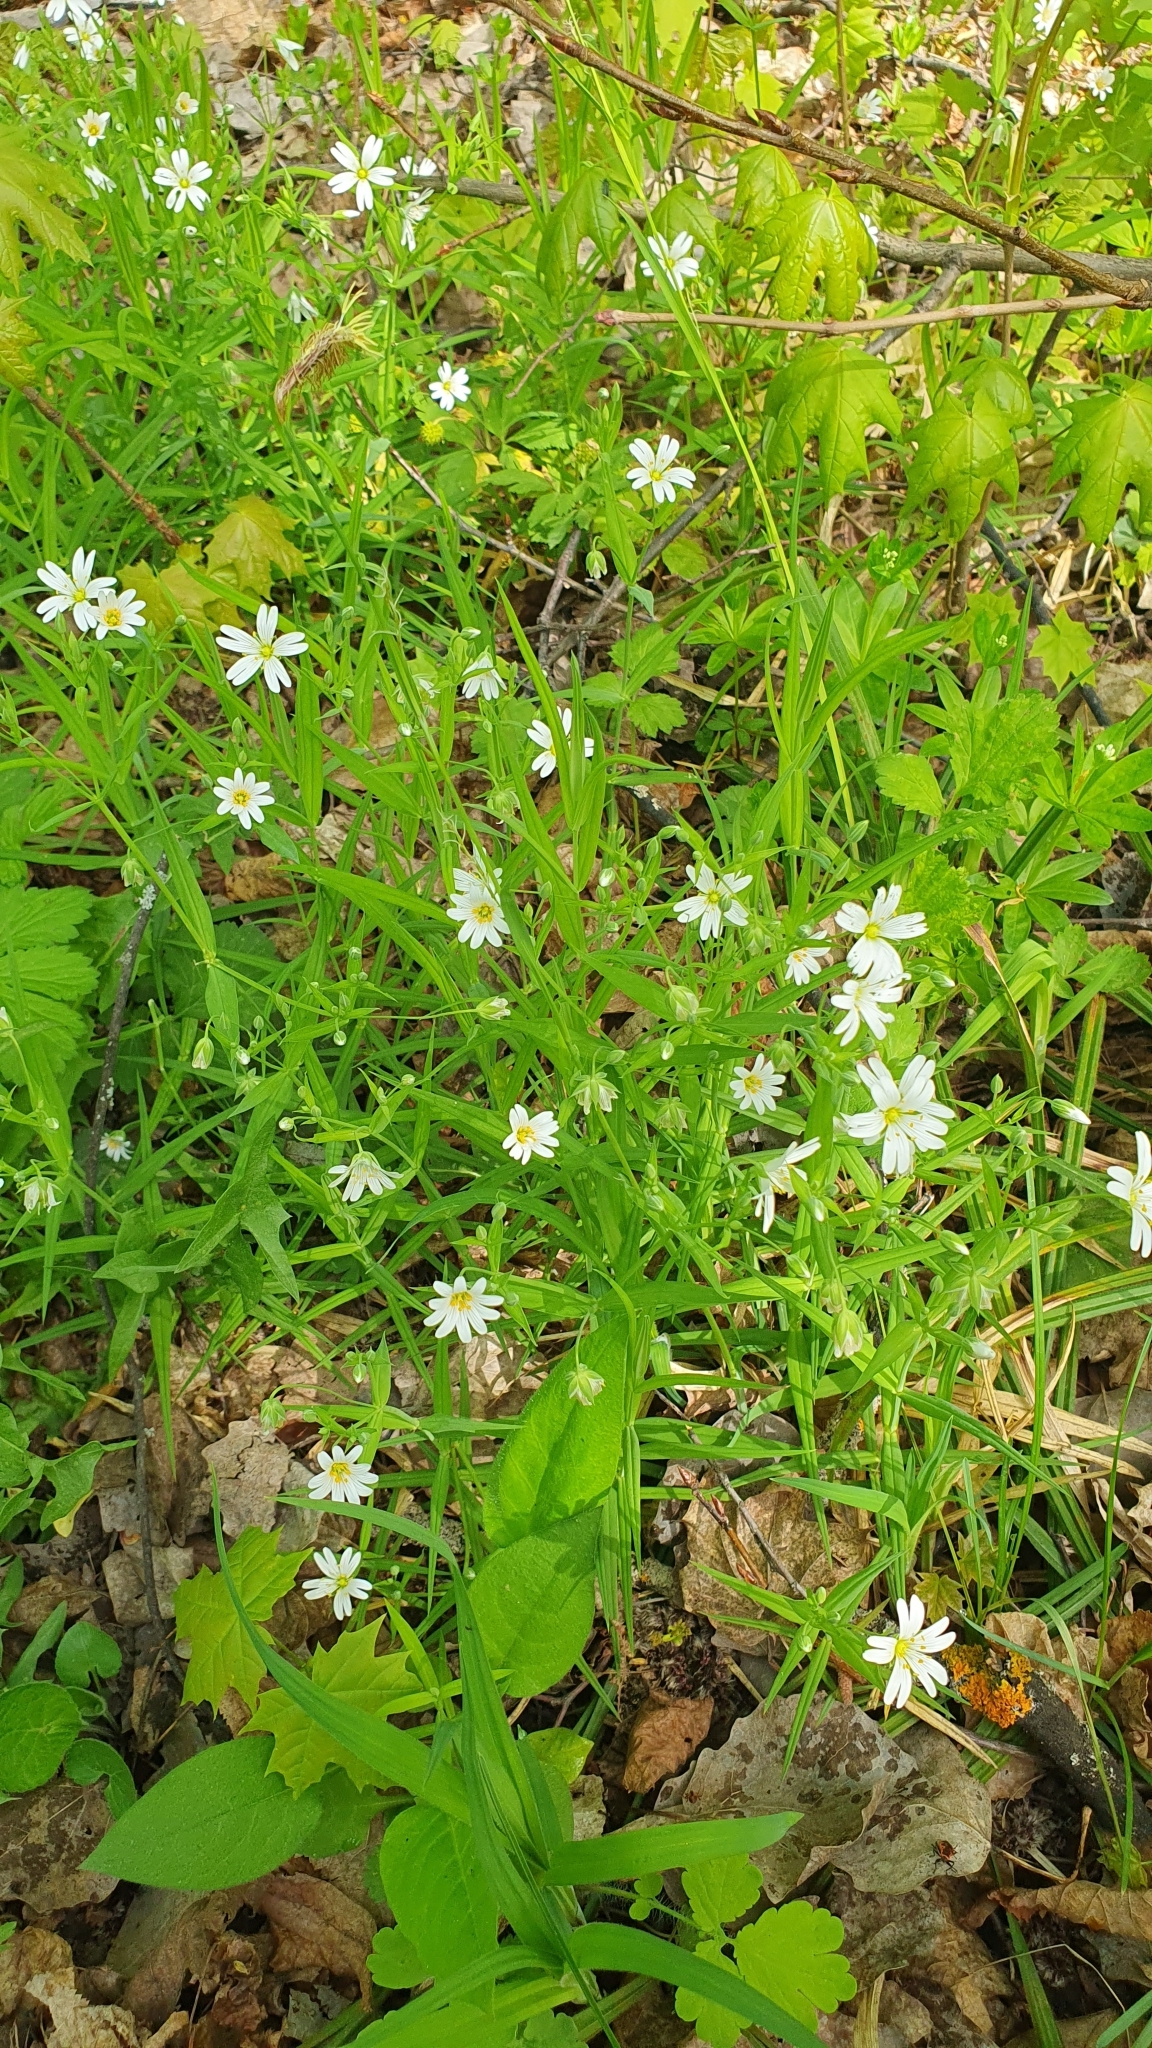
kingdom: Plantae
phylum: Tracheophyta
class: Magnoliopsida
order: Caryophyllales
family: Caryophyllaceae
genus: Rabelera
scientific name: Rabelera holostea
